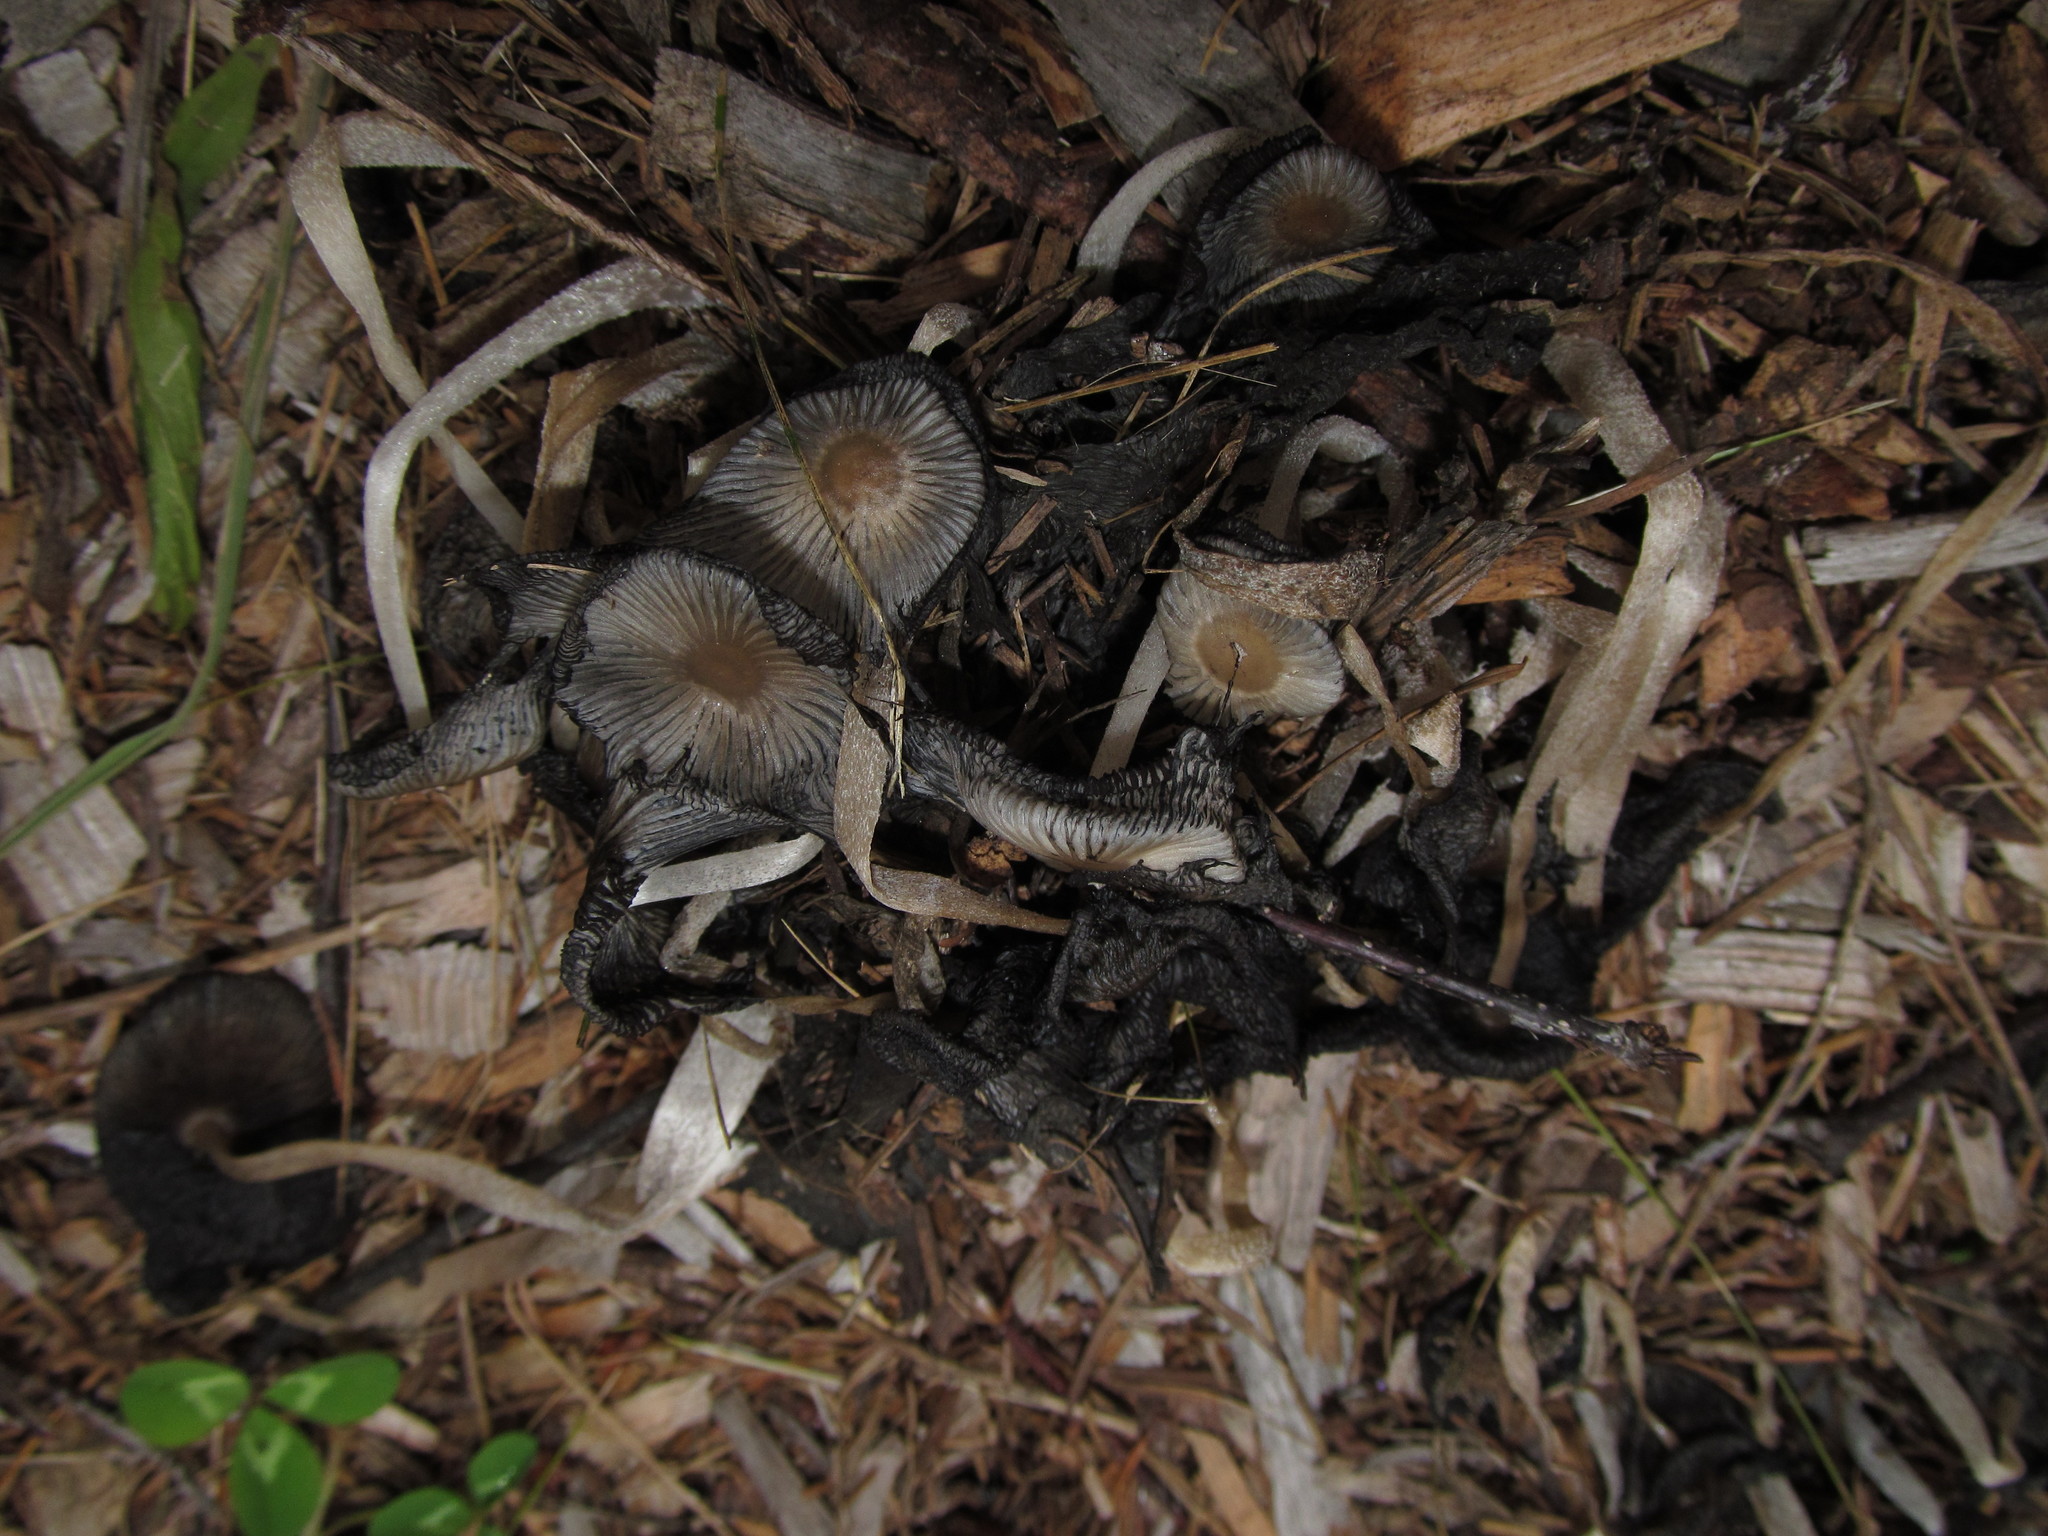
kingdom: Fungi
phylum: Basidiomycota
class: Agaricomycetes
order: Agaricales
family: Psathyrellaceae
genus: Coprinopsis
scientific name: Coprinopsis lagopus
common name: Hare'sfoot inkcap
